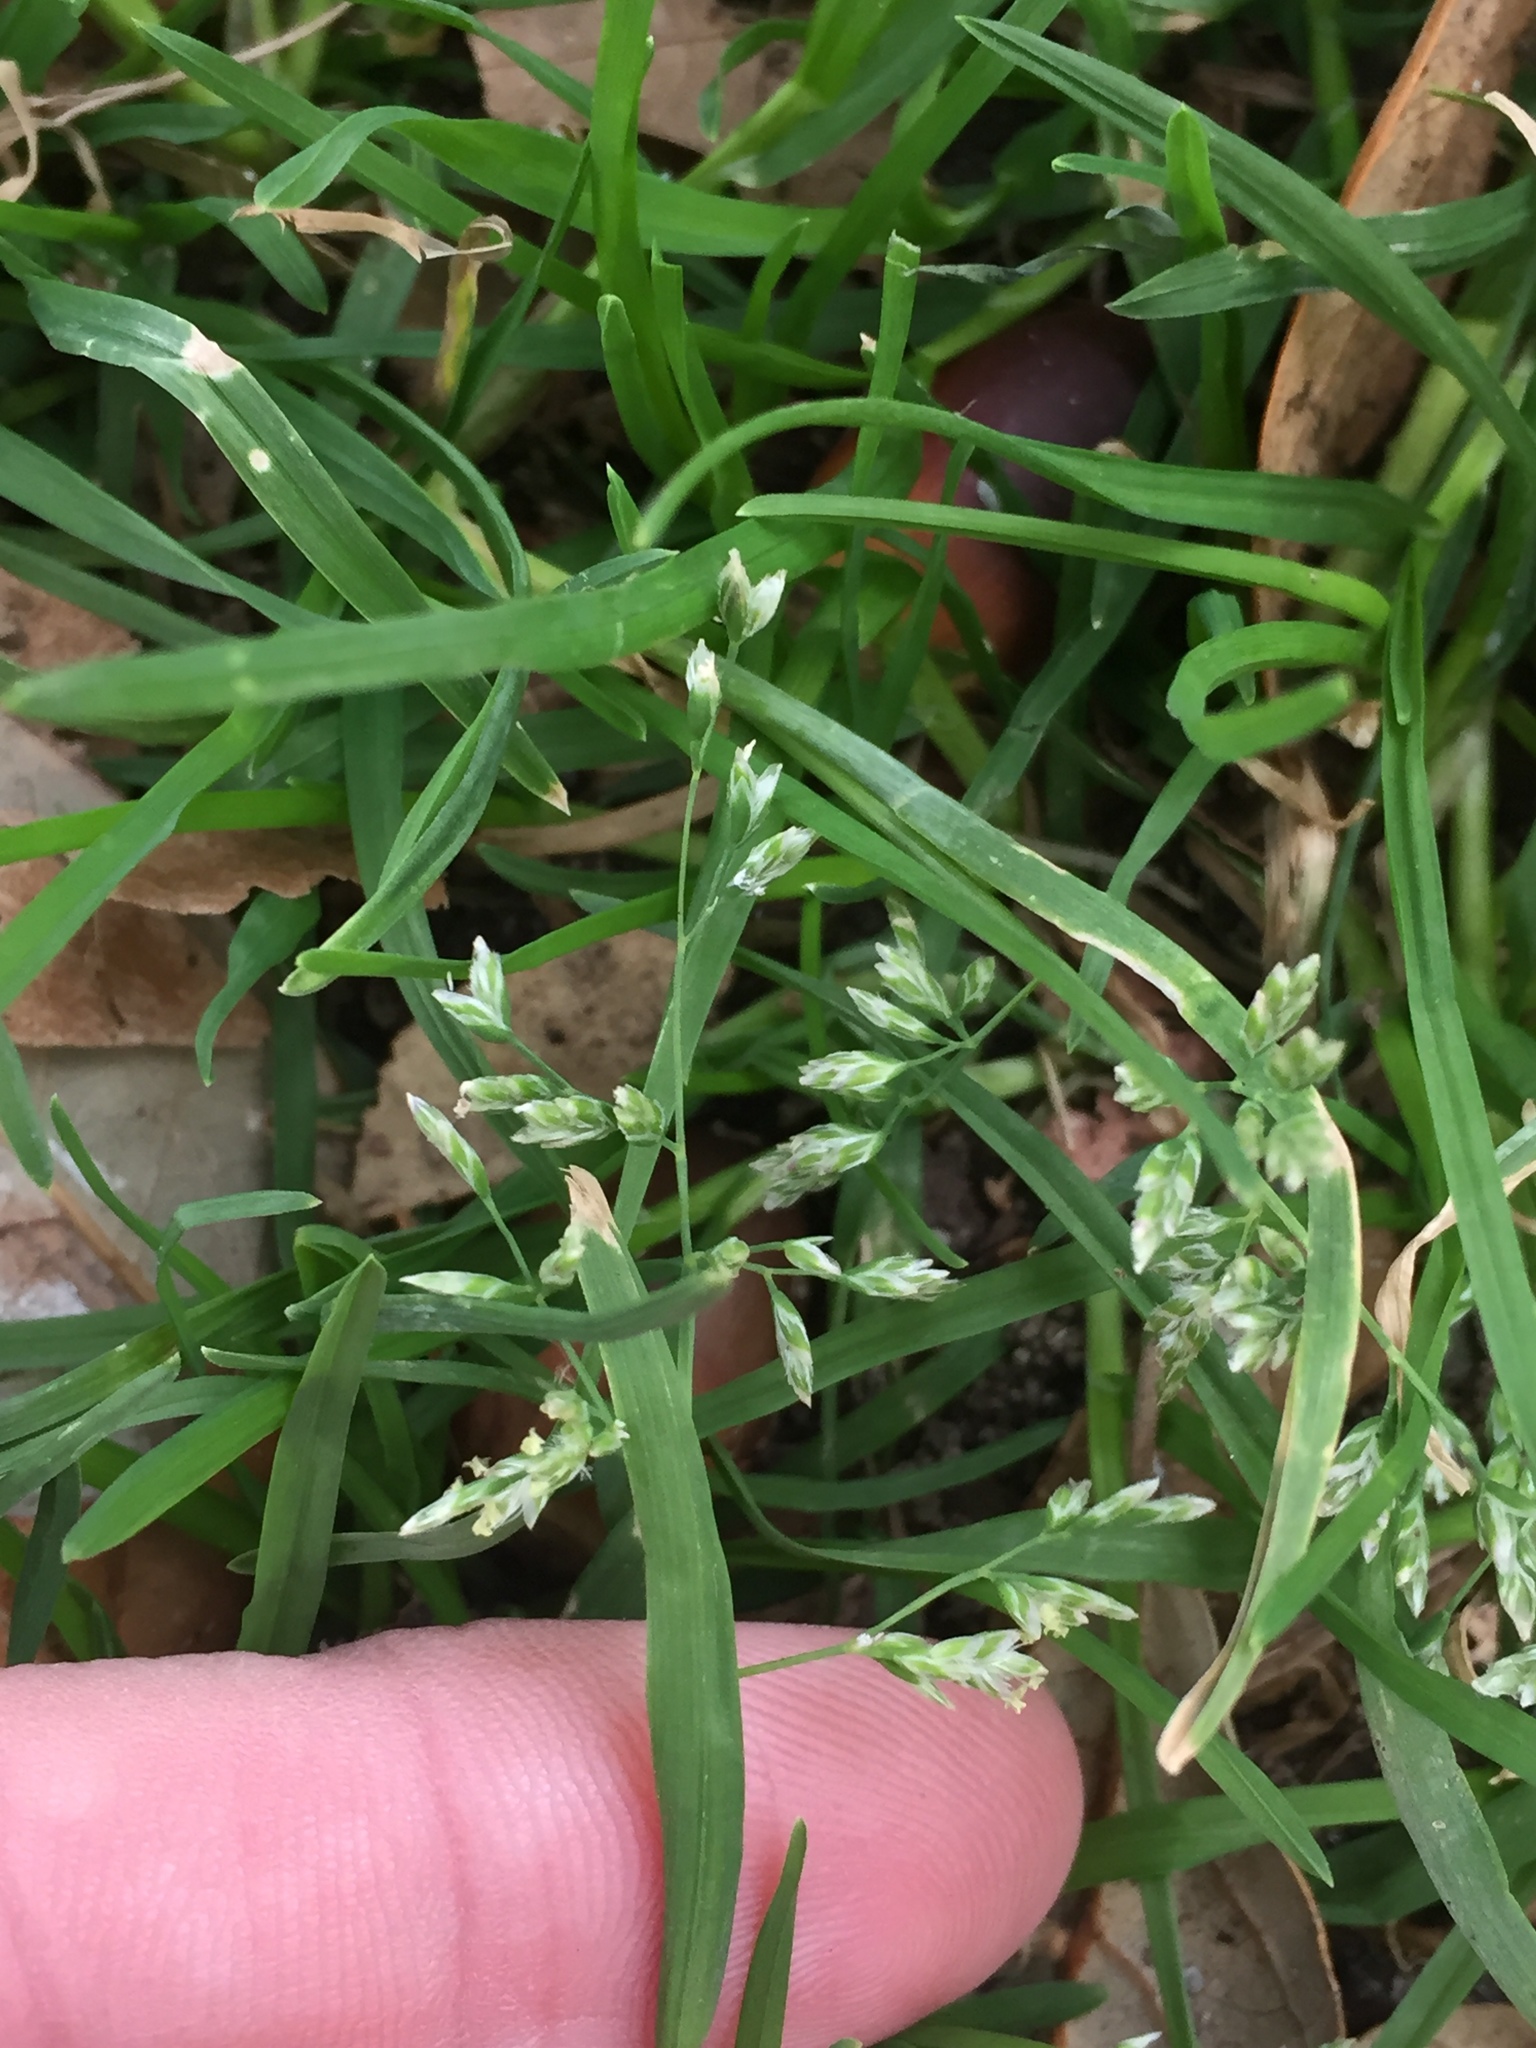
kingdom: Plantae
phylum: Tracheophyta
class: Liliopsida
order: Poales
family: Poaceae
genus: Poa
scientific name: Poa annua
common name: Annual bluegrass
